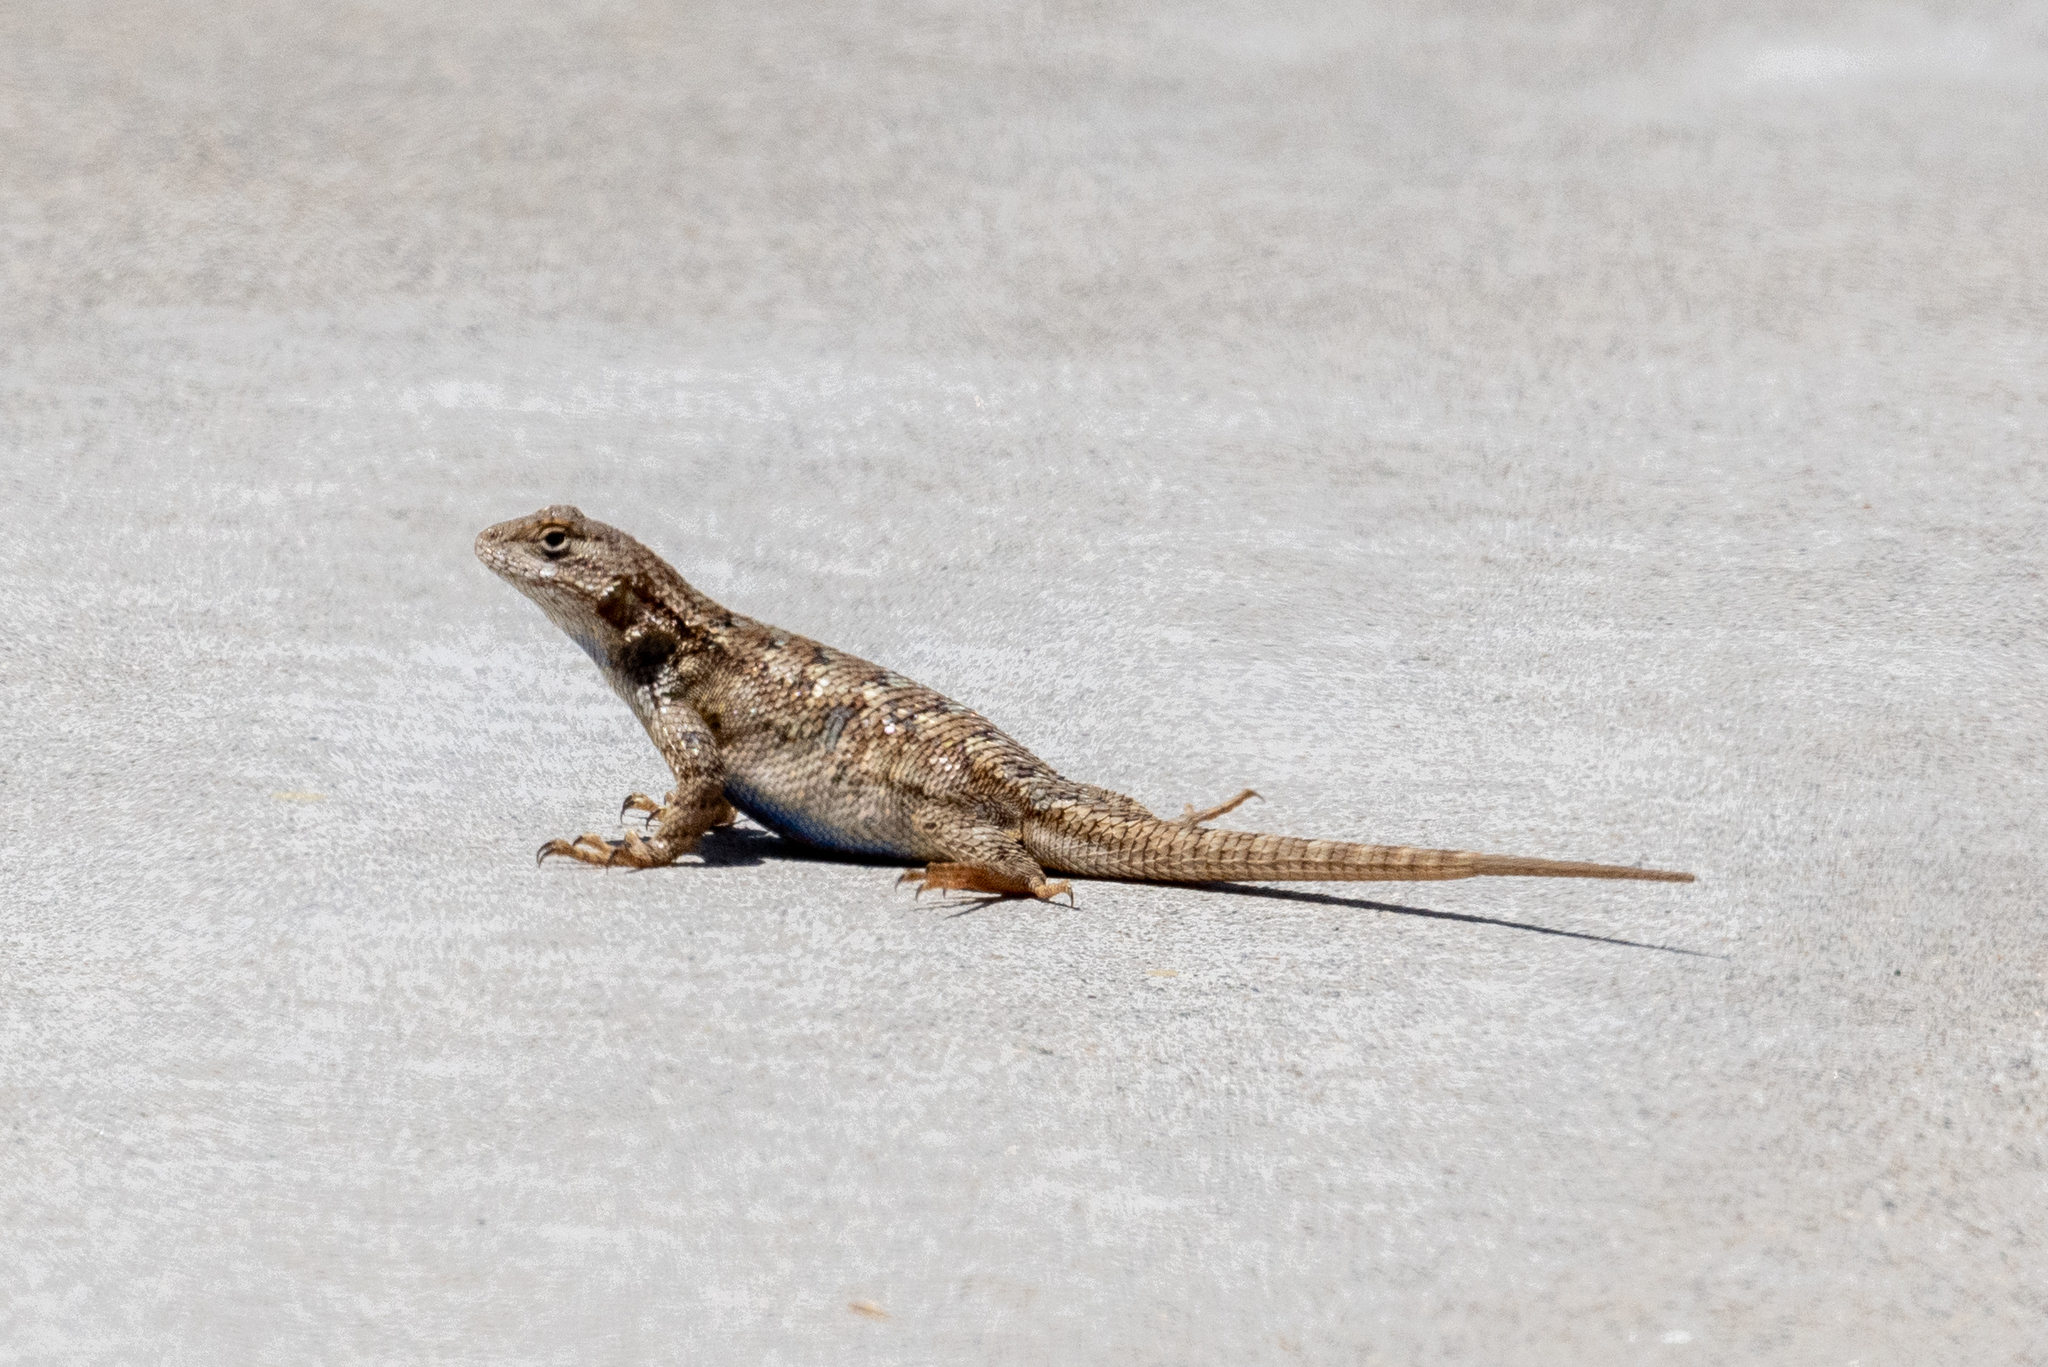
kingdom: Animalia
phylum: Chordata
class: Squamata
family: Phrynosomatidae
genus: Sceloporus
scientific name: Sceloporus occidentalis
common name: Western fence lizard
